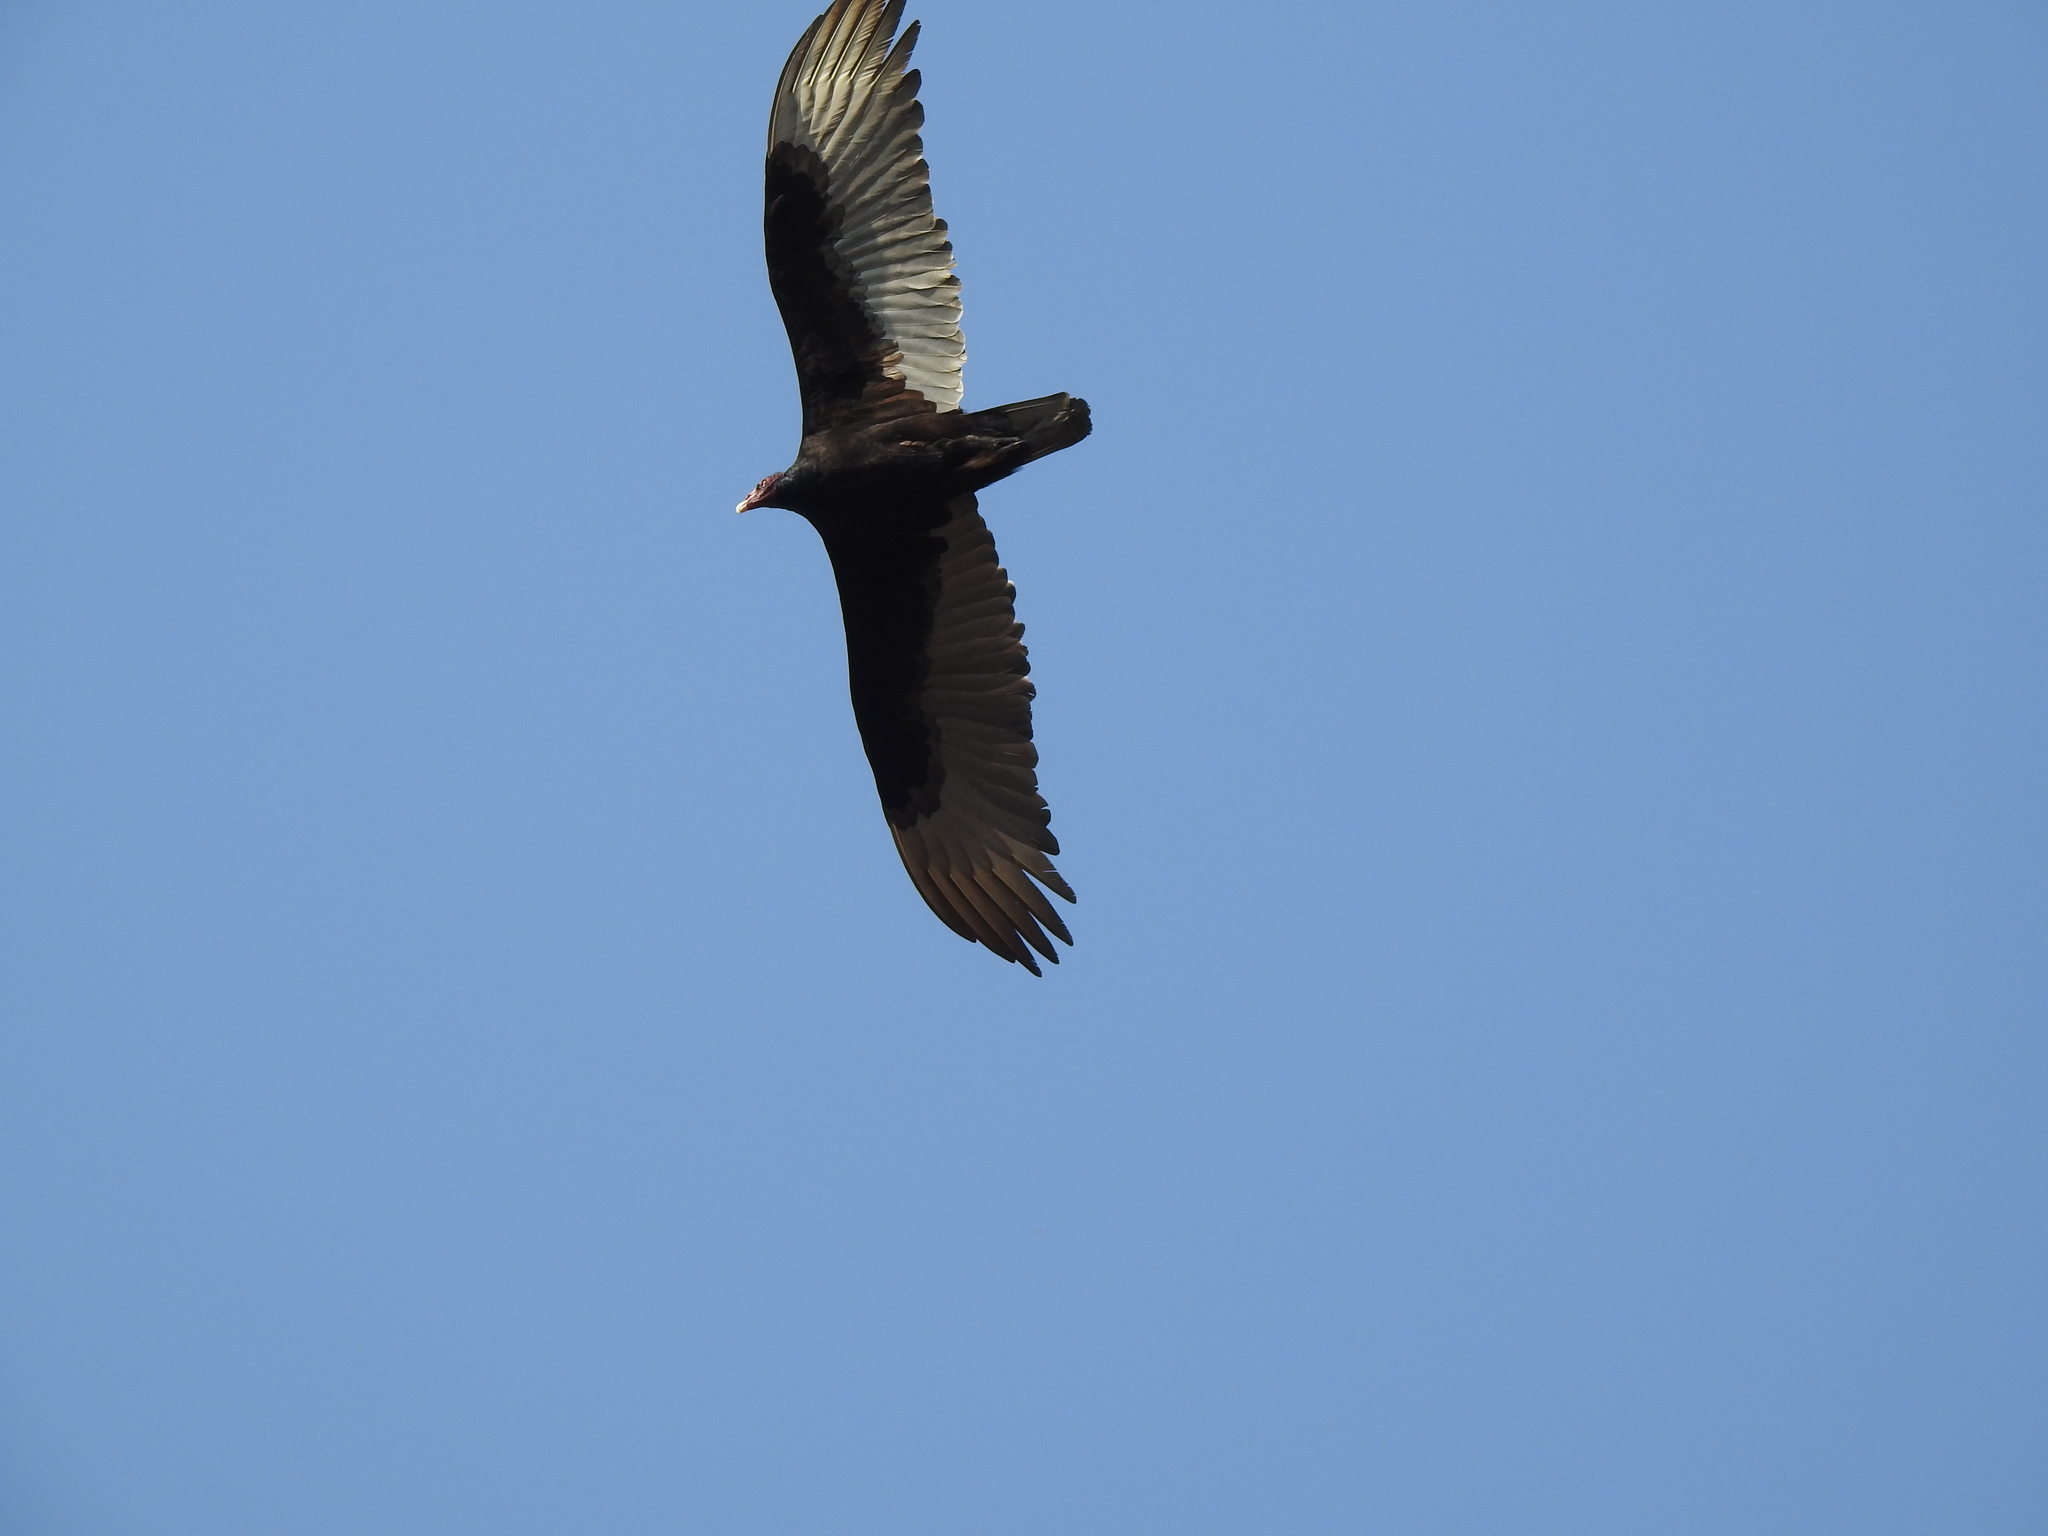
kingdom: Animalia
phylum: Chordata
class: Aves
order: Accipitriformes
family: Cathartidae
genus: Cathartes
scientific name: Cathartes aura
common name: Turkey vulture
